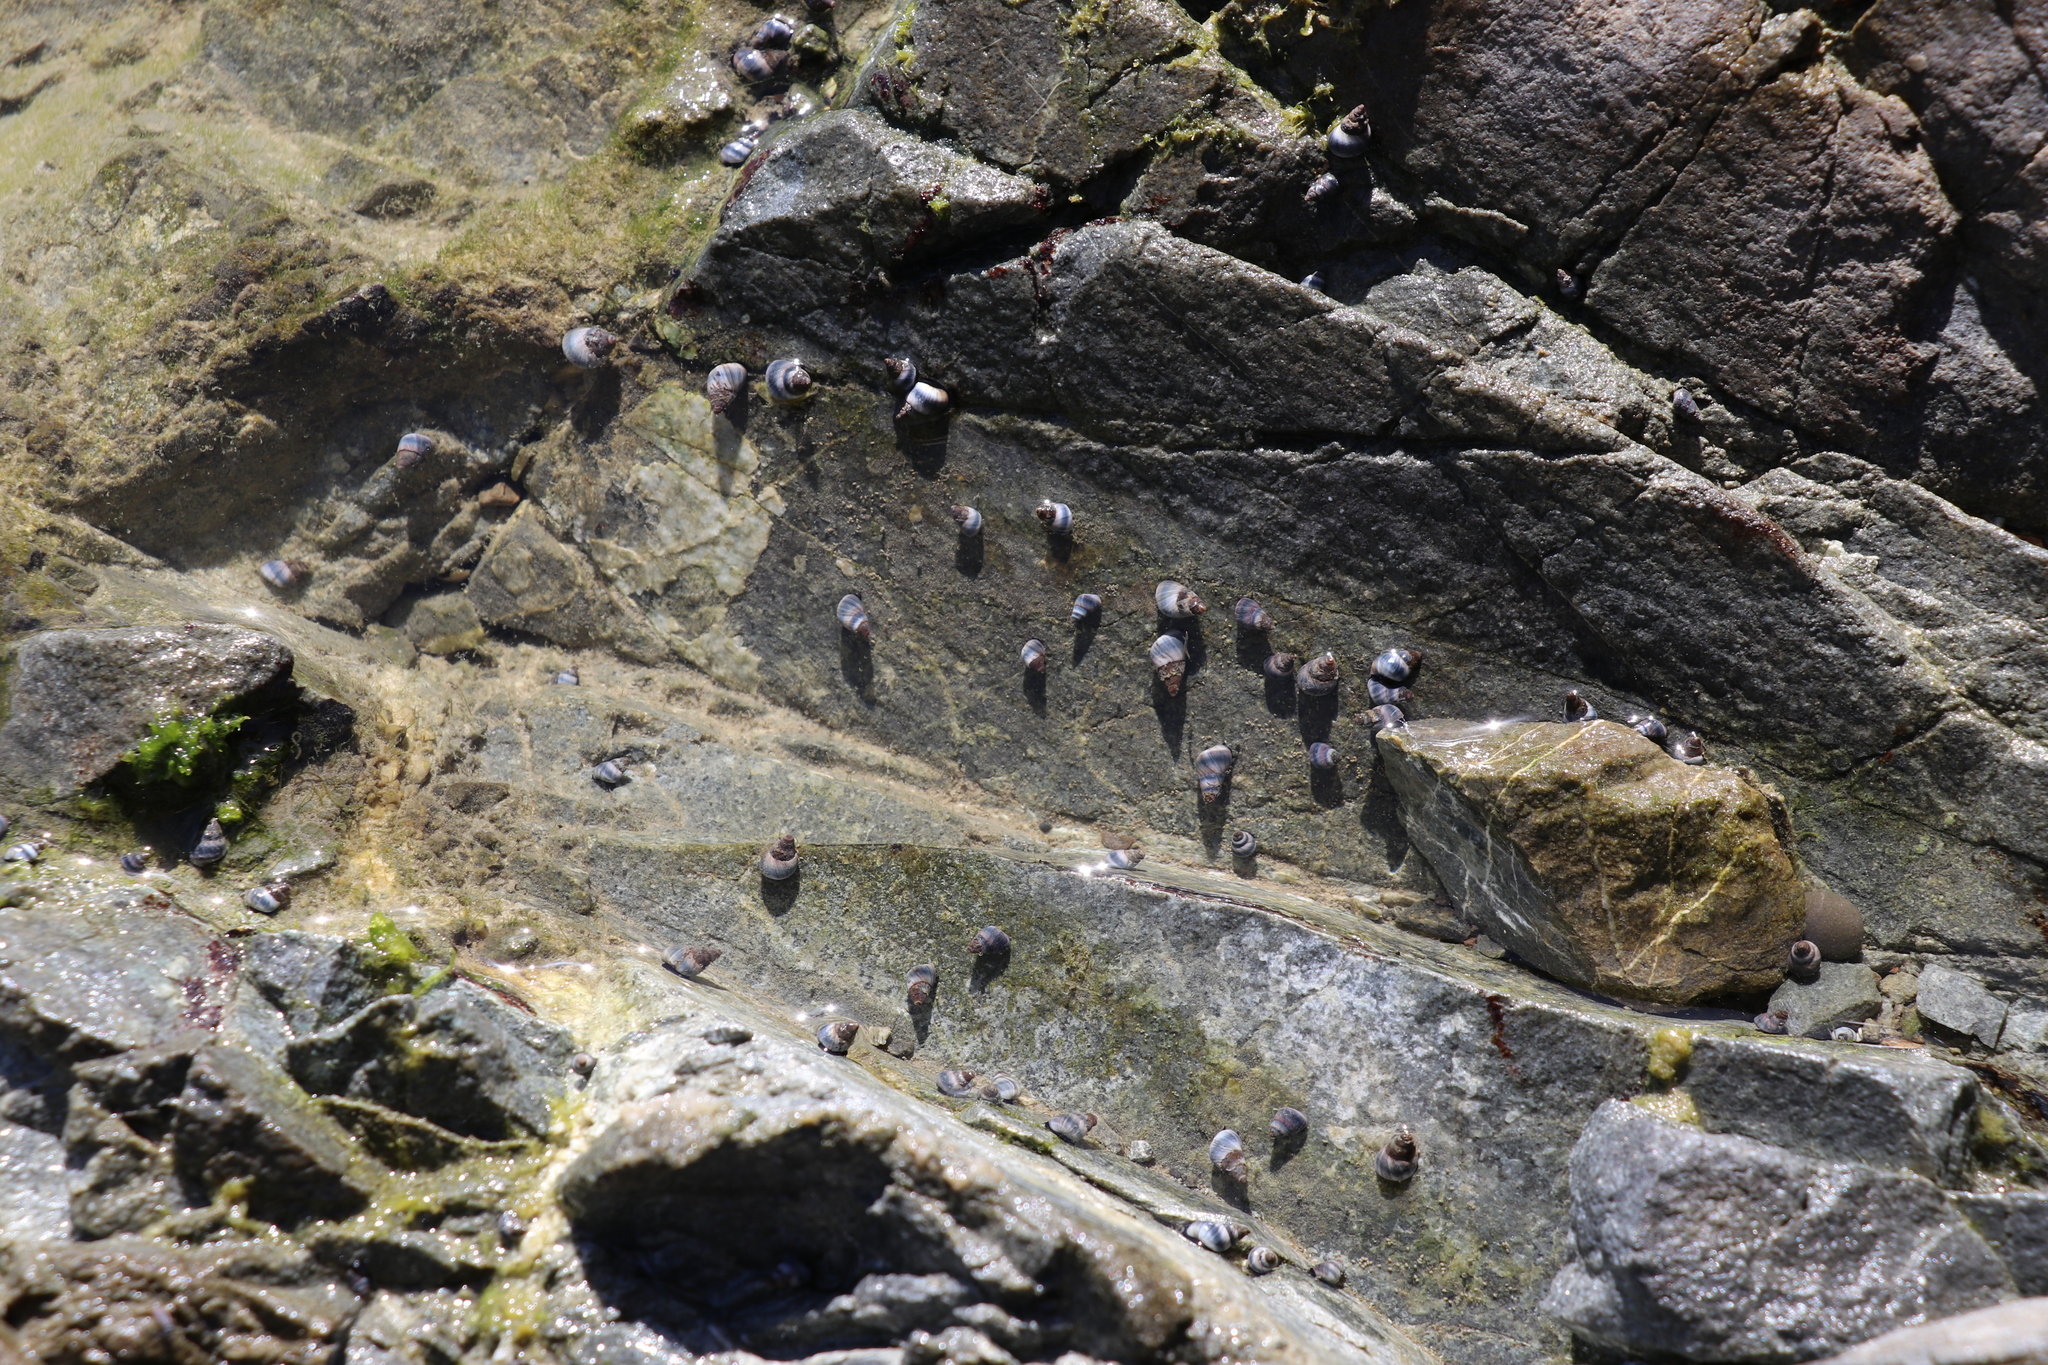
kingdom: Animalia
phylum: Mollusca
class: Gastropoda
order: Littorinimorpha
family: Littorinidae
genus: Austrolittorina
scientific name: Austrolittorina antipodum
